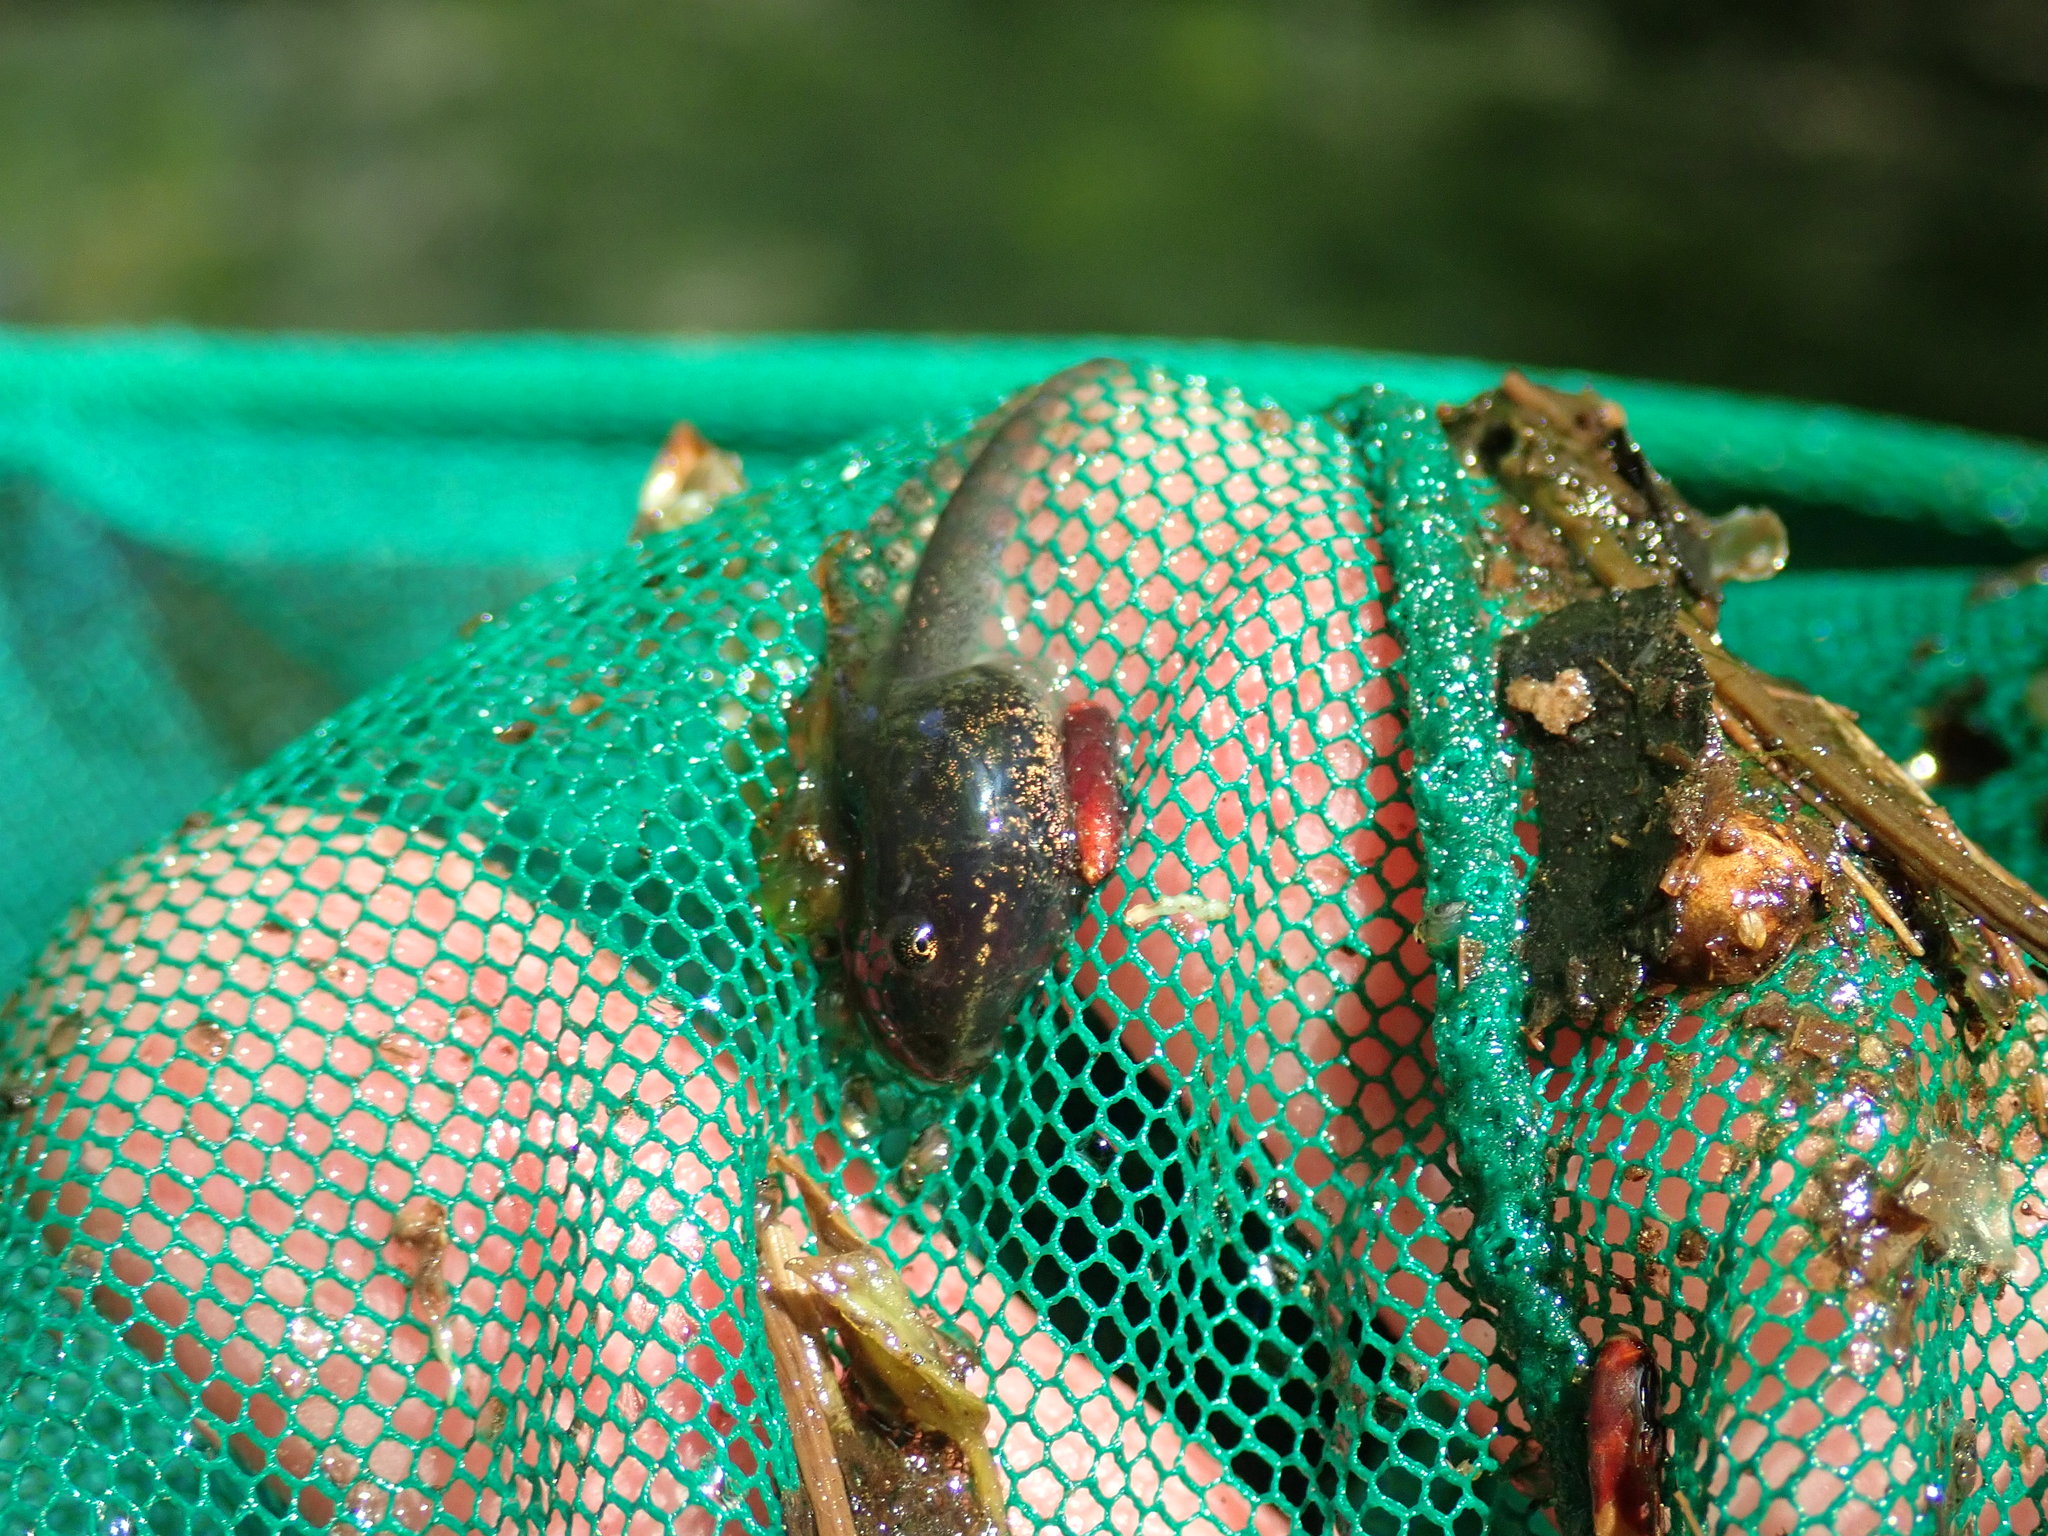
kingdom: Animalia
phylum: Chordata
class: Amphibia
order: Anura
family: Ranidae
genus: Lithobates
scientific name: Lithobates sylvaticus
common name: Wood frog
